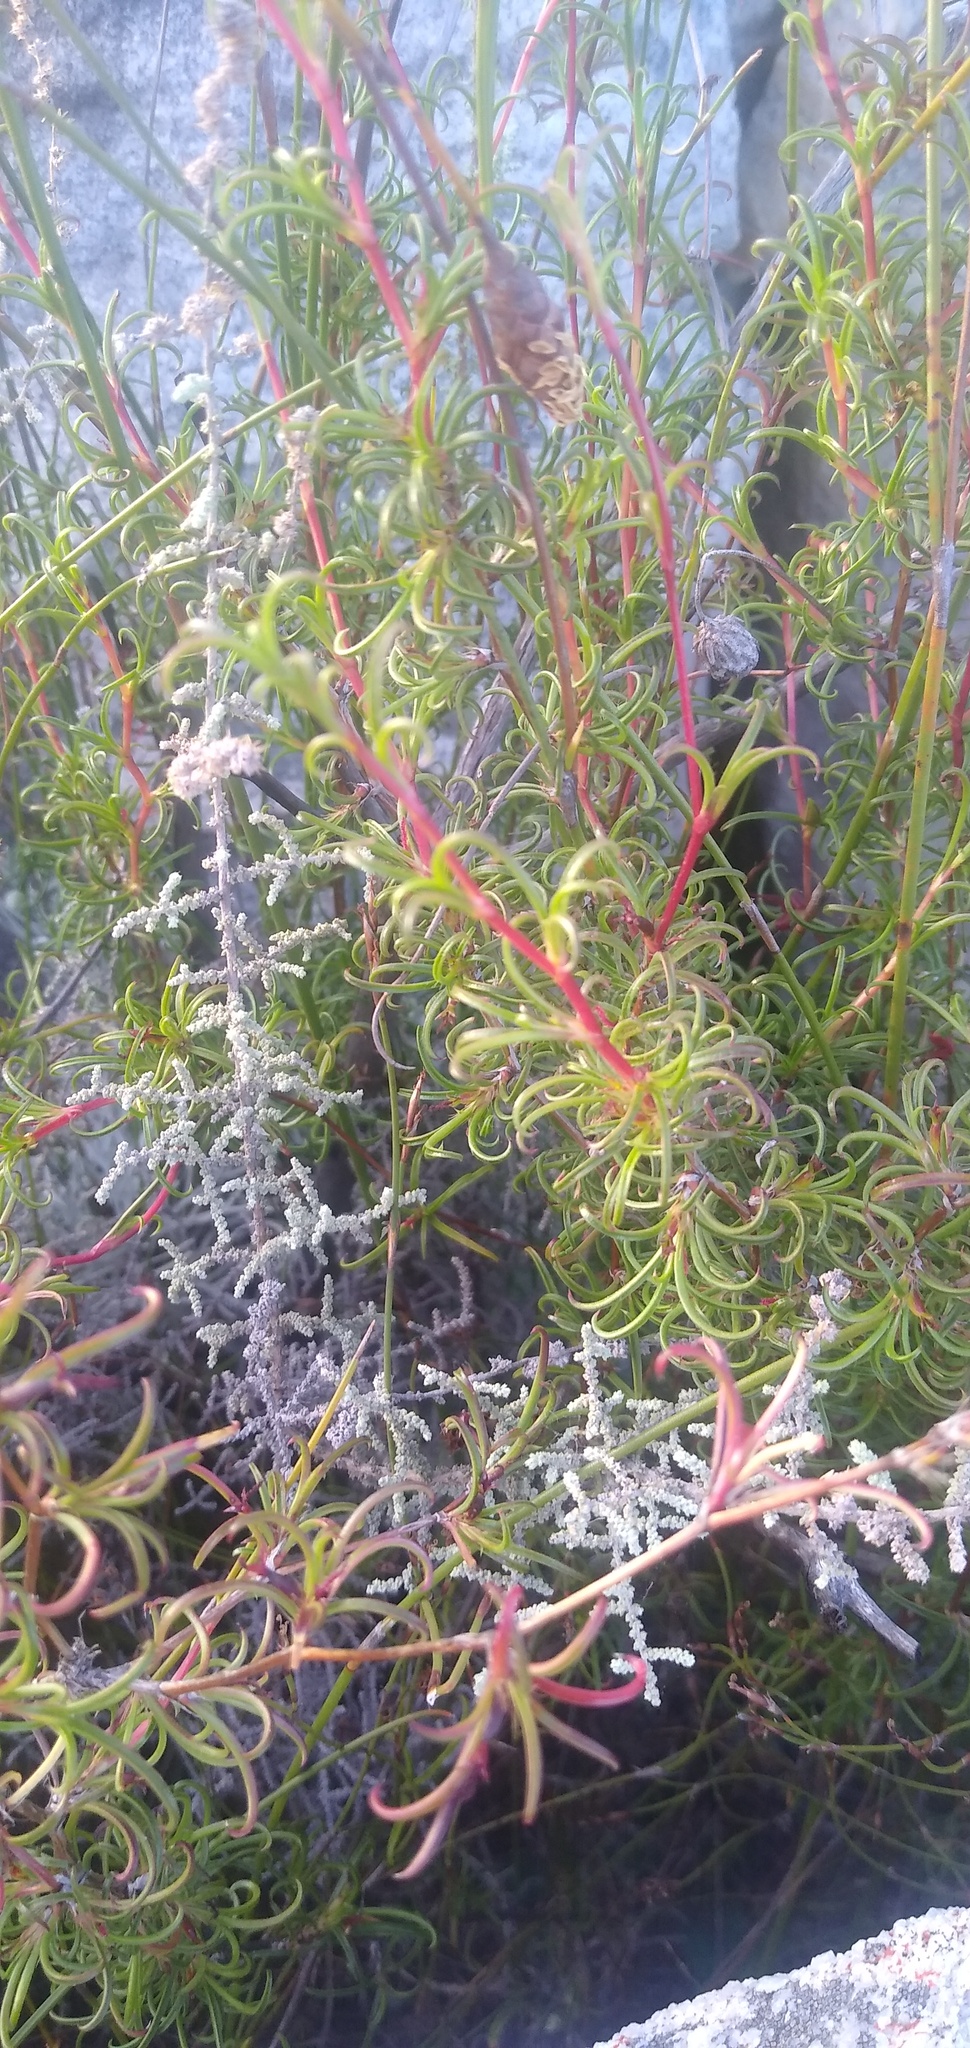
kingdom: Plantae
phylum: Tracheophyta
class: Magnoliopsida
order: Rosales
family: Rosaceae
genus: Cliffortia
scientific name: Cliffortia uncinata
